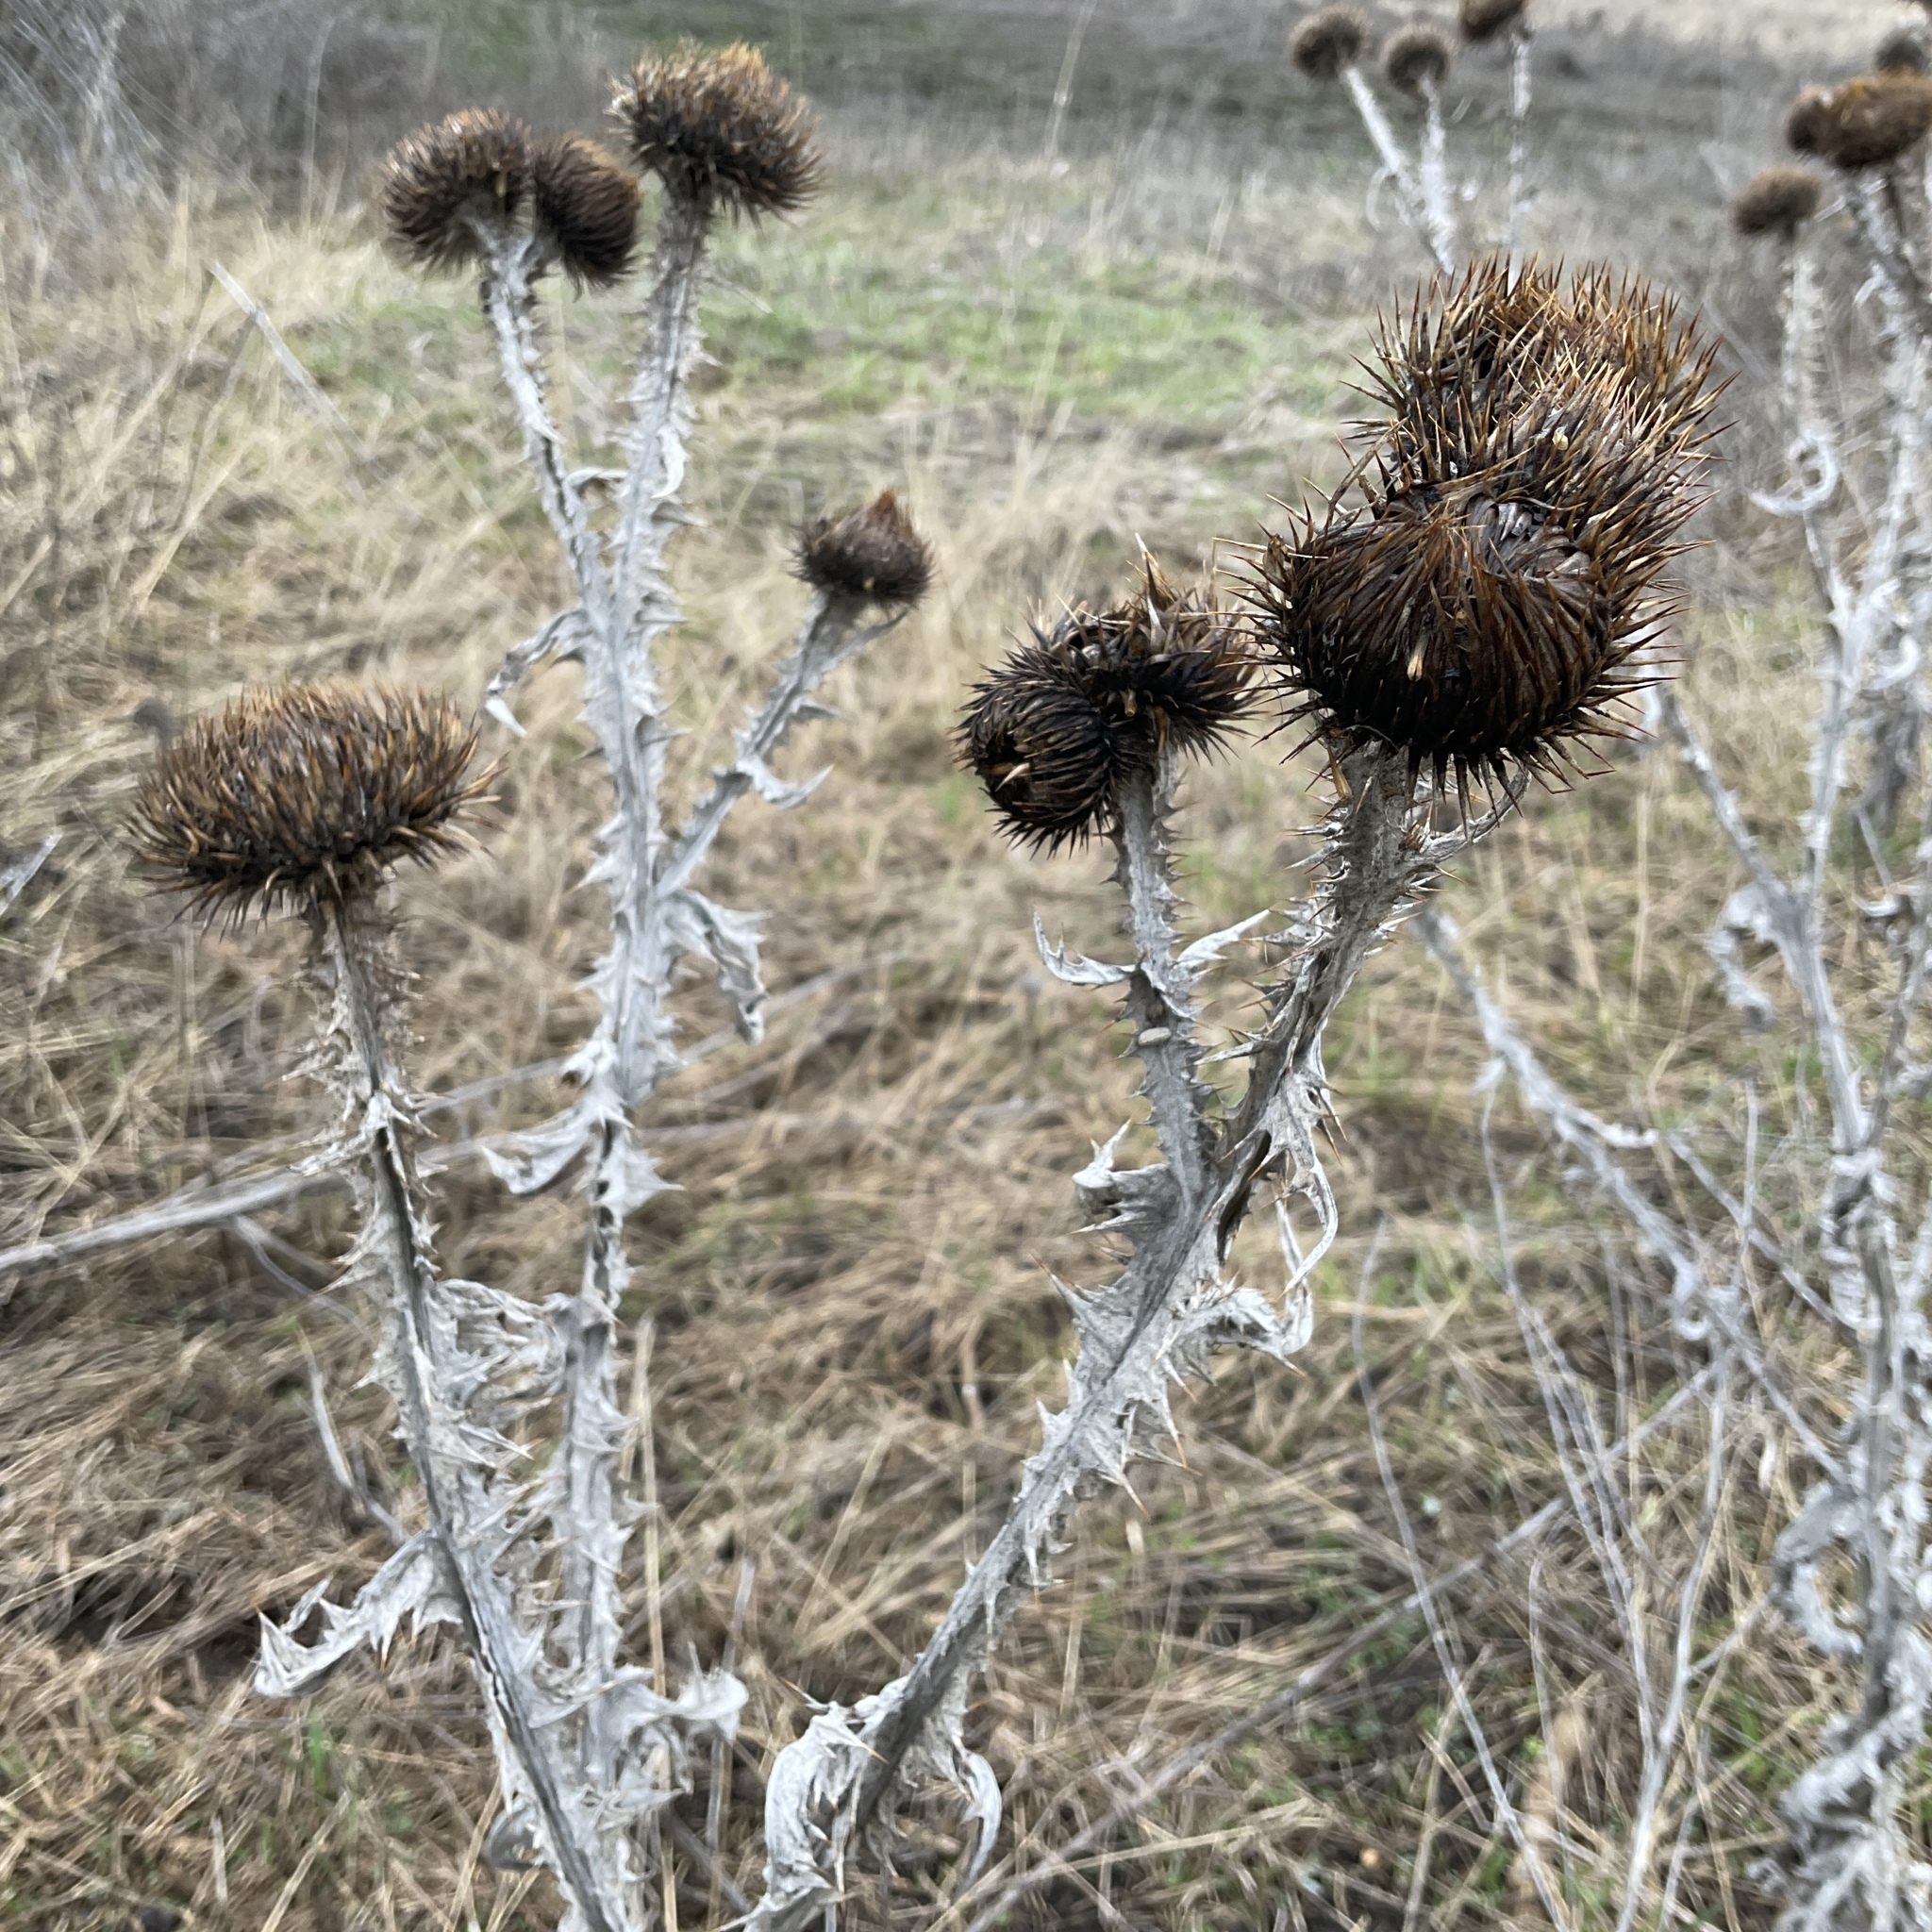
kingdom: Plantae
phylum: Tracheophyta
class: Magnoliopsida
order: Asterales
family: Asteraceae
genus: Onopordum
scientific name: Onopordum acanthium
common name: Scotch thistle
